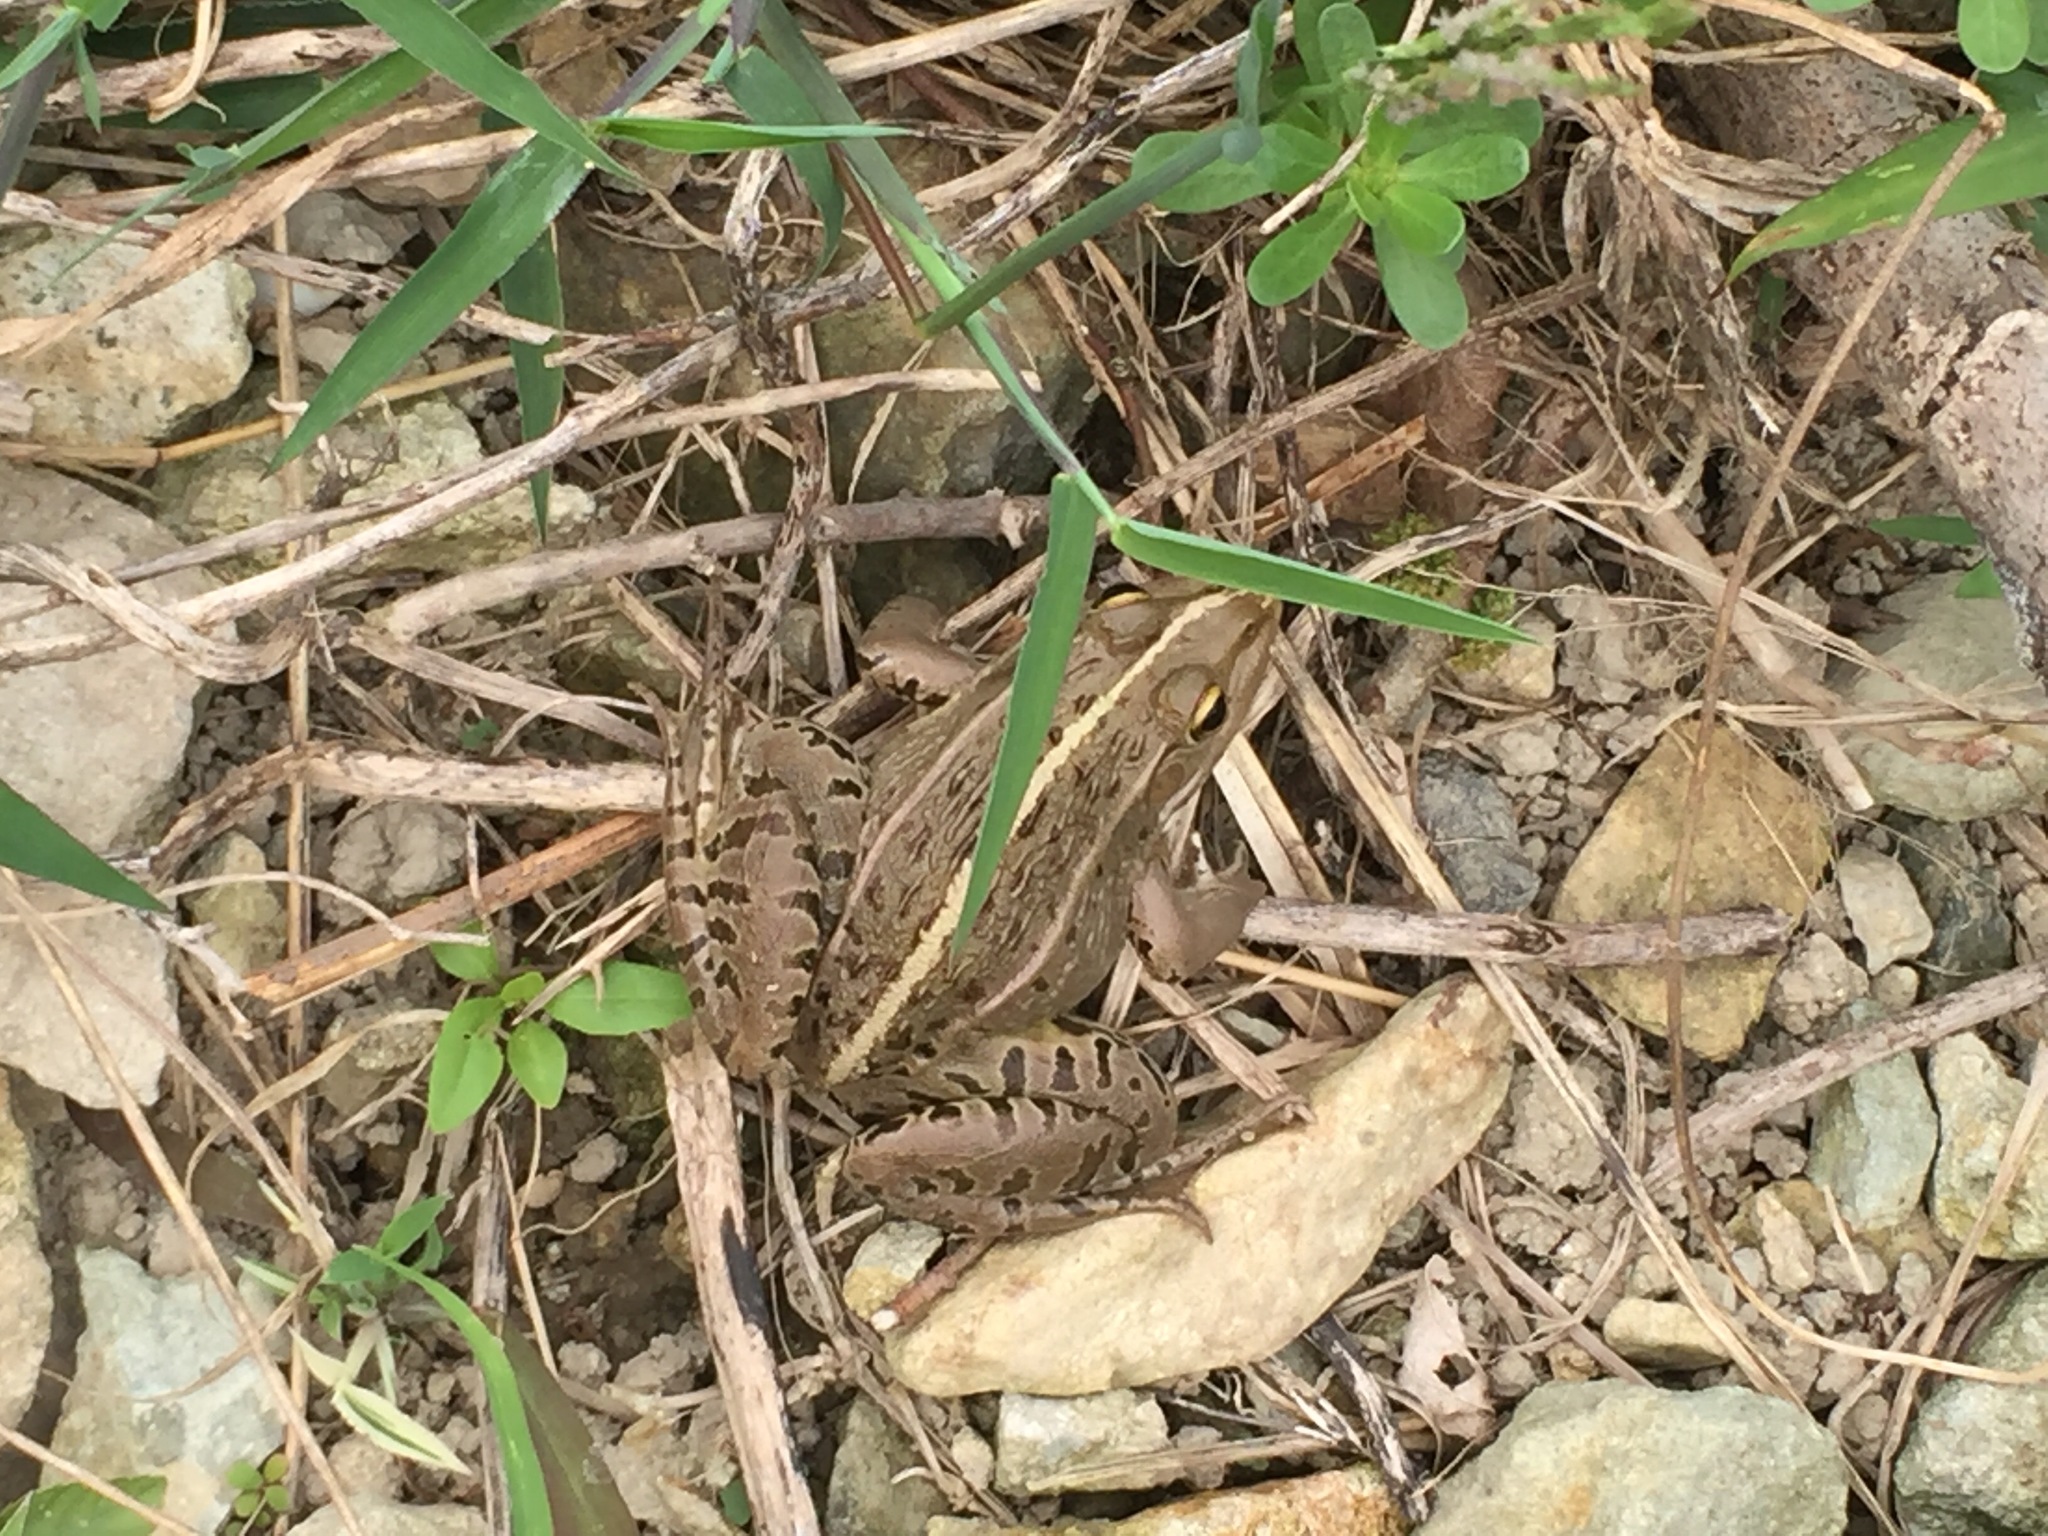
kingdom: Animalia
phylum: Chordata
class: Amphibia
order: Anura
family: Ranidae
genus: Pelophylax
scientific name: Pelophylax nigromaculatus
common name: Black-spotted pond frog
